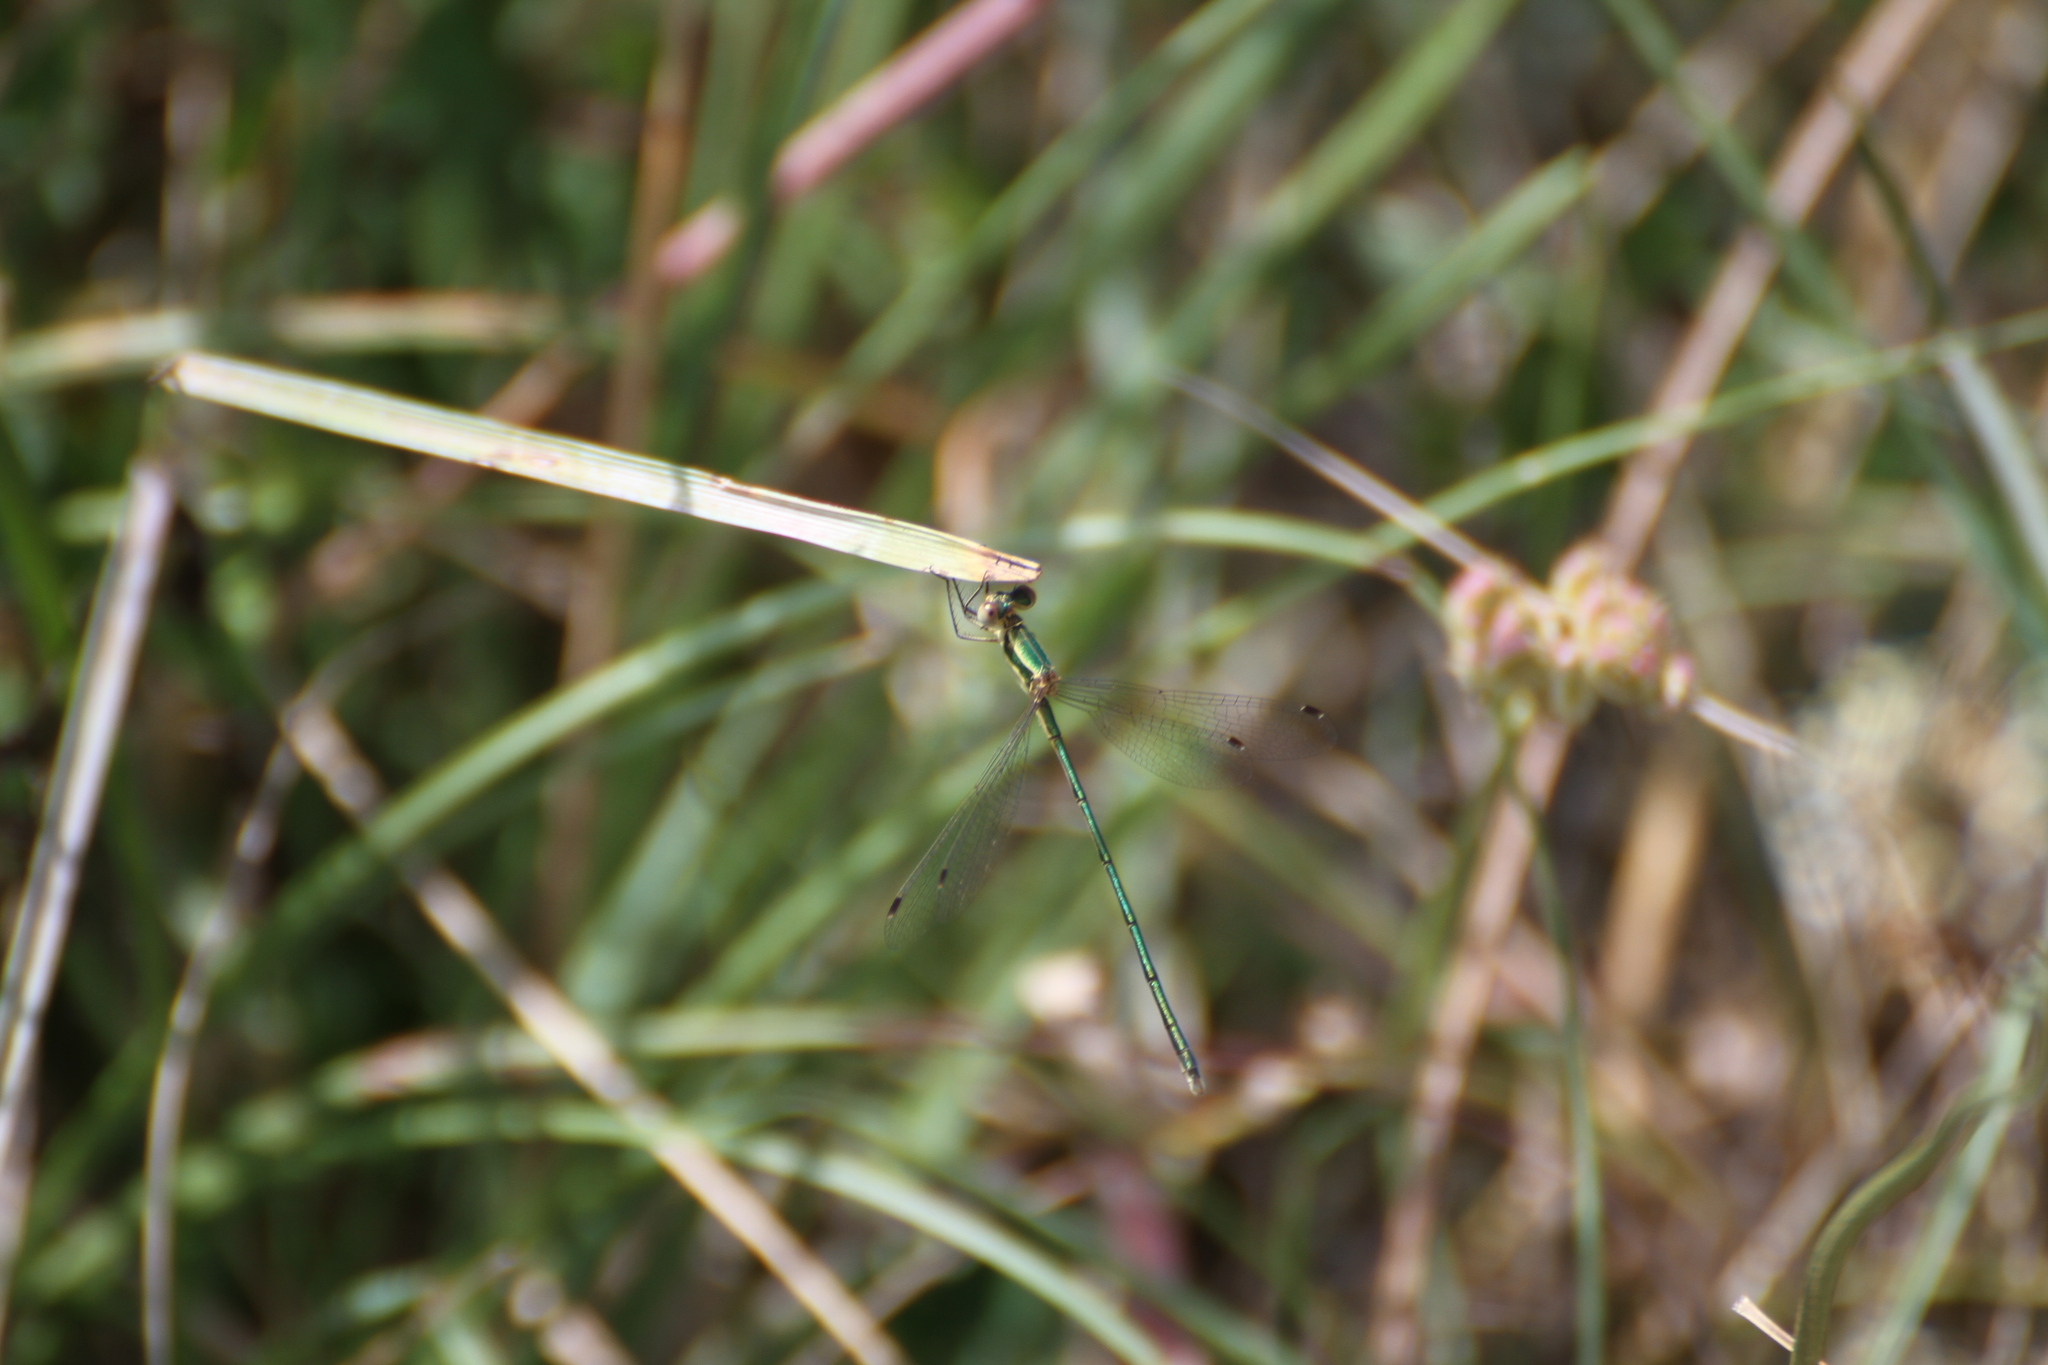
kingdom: Animalia
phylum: Arthropoda
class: Insecta
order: Odonata
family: Lestidae
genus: Lestes
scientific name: Lestes virens
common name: Small emerald spreadwing
